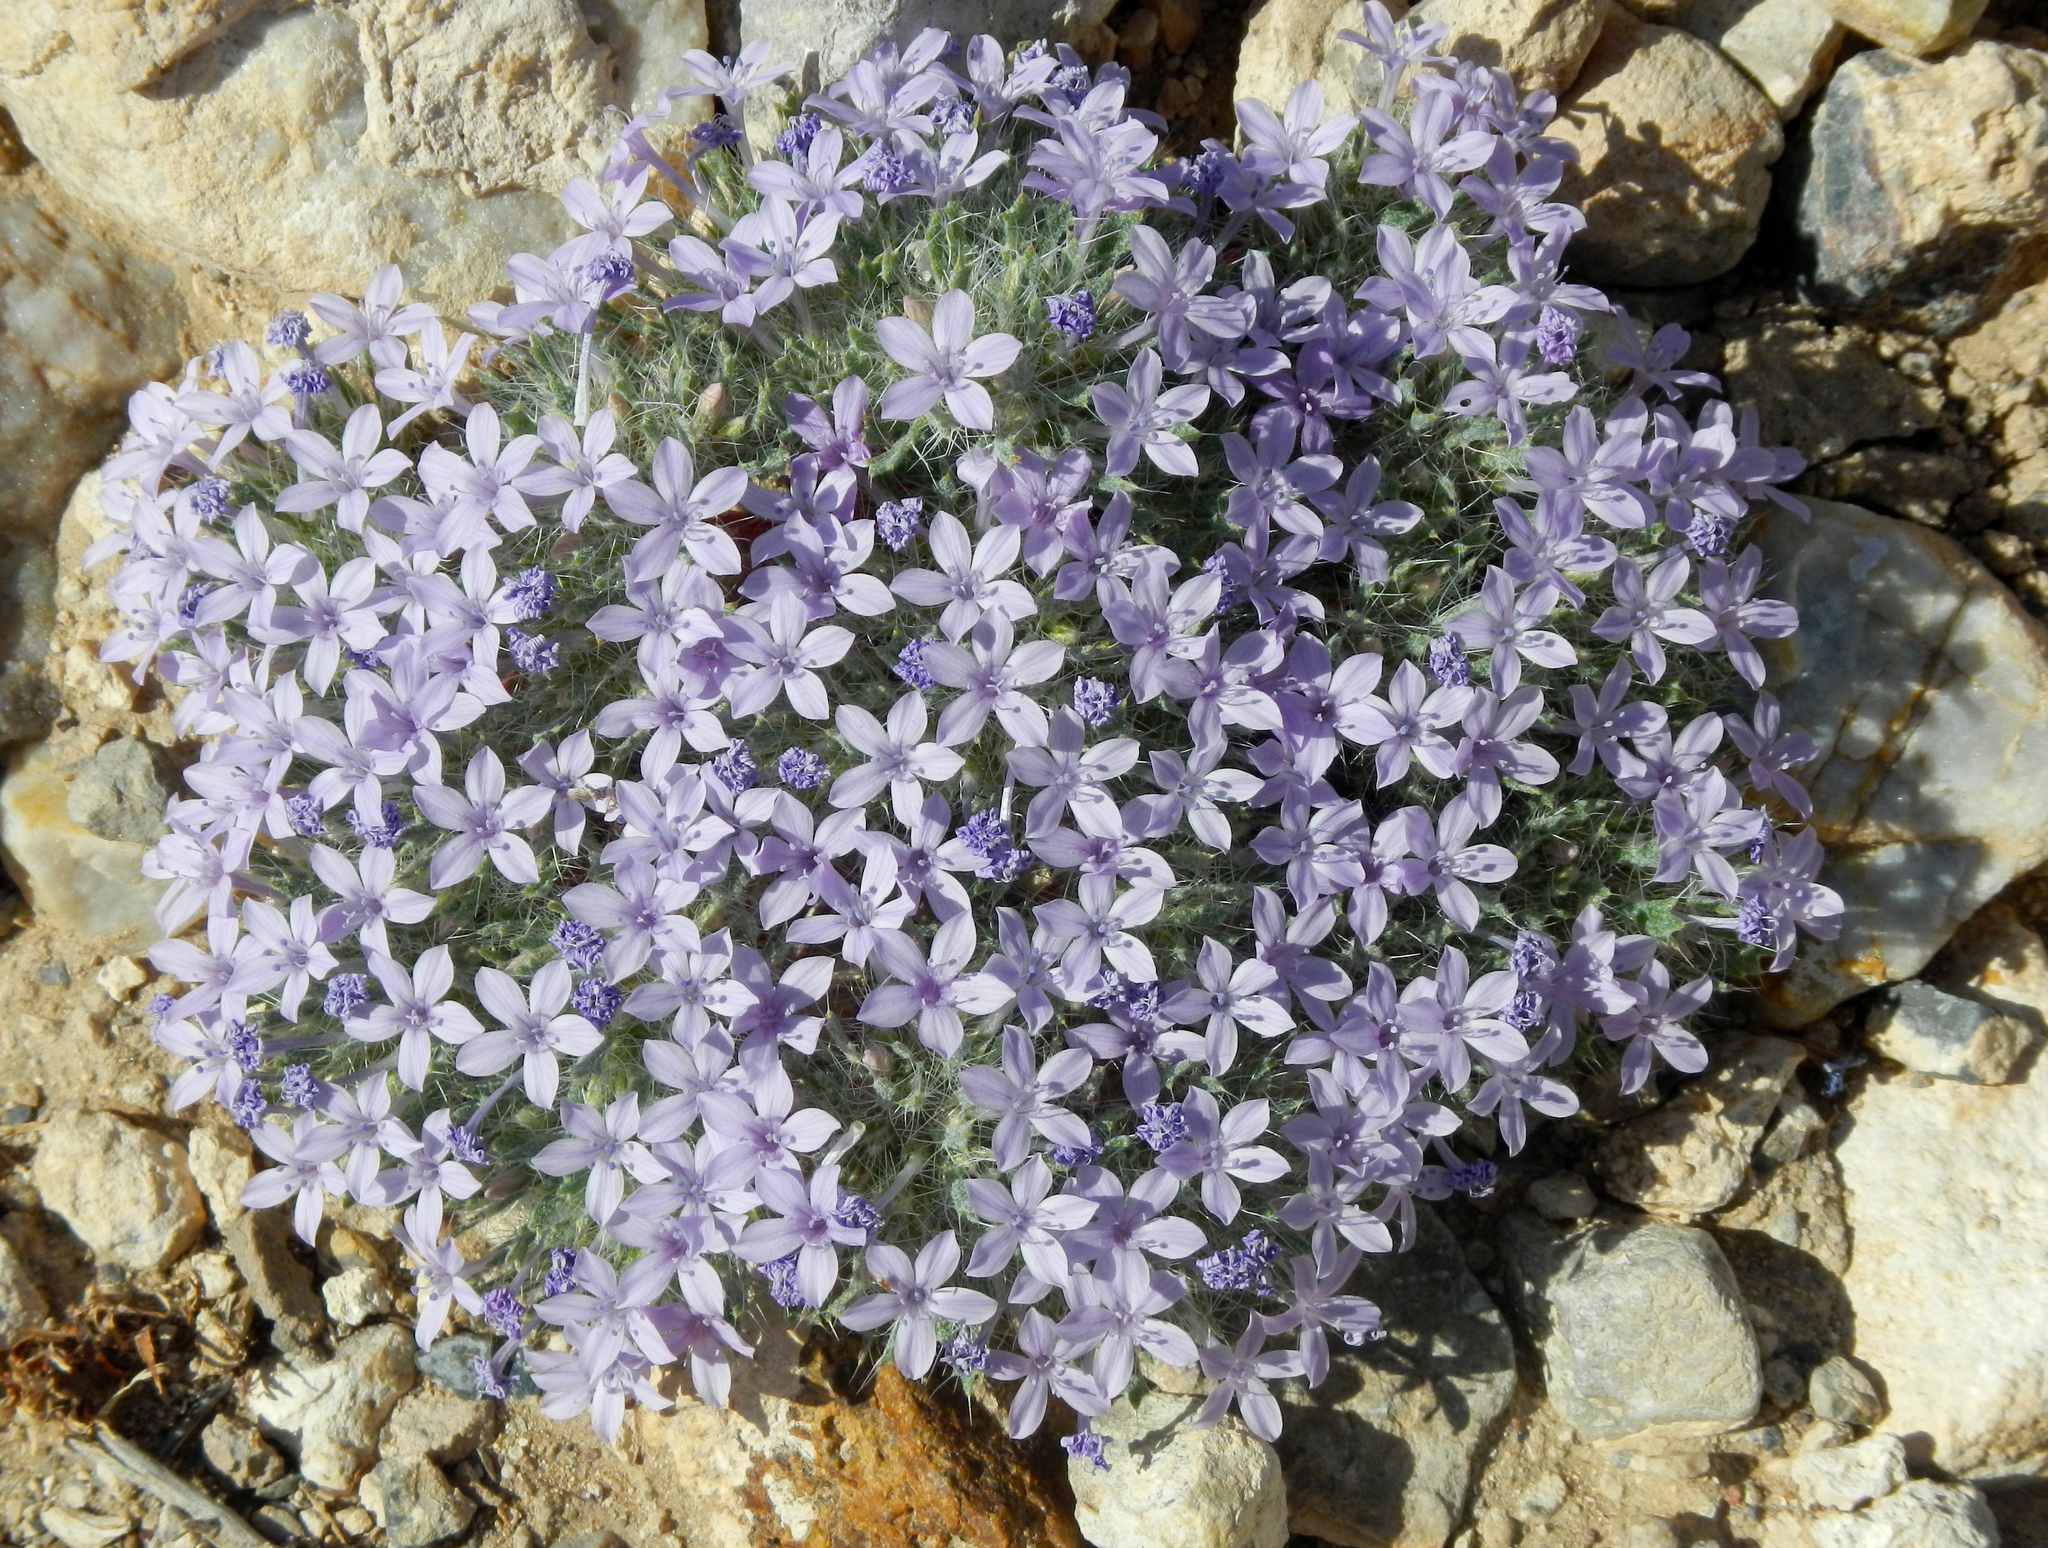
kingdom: Plantae
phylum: Tracheophyta
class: Magnoliopsida
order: Ericales
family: Polemoniaceae
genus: Langloisia
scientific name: Langloisia setosissima
